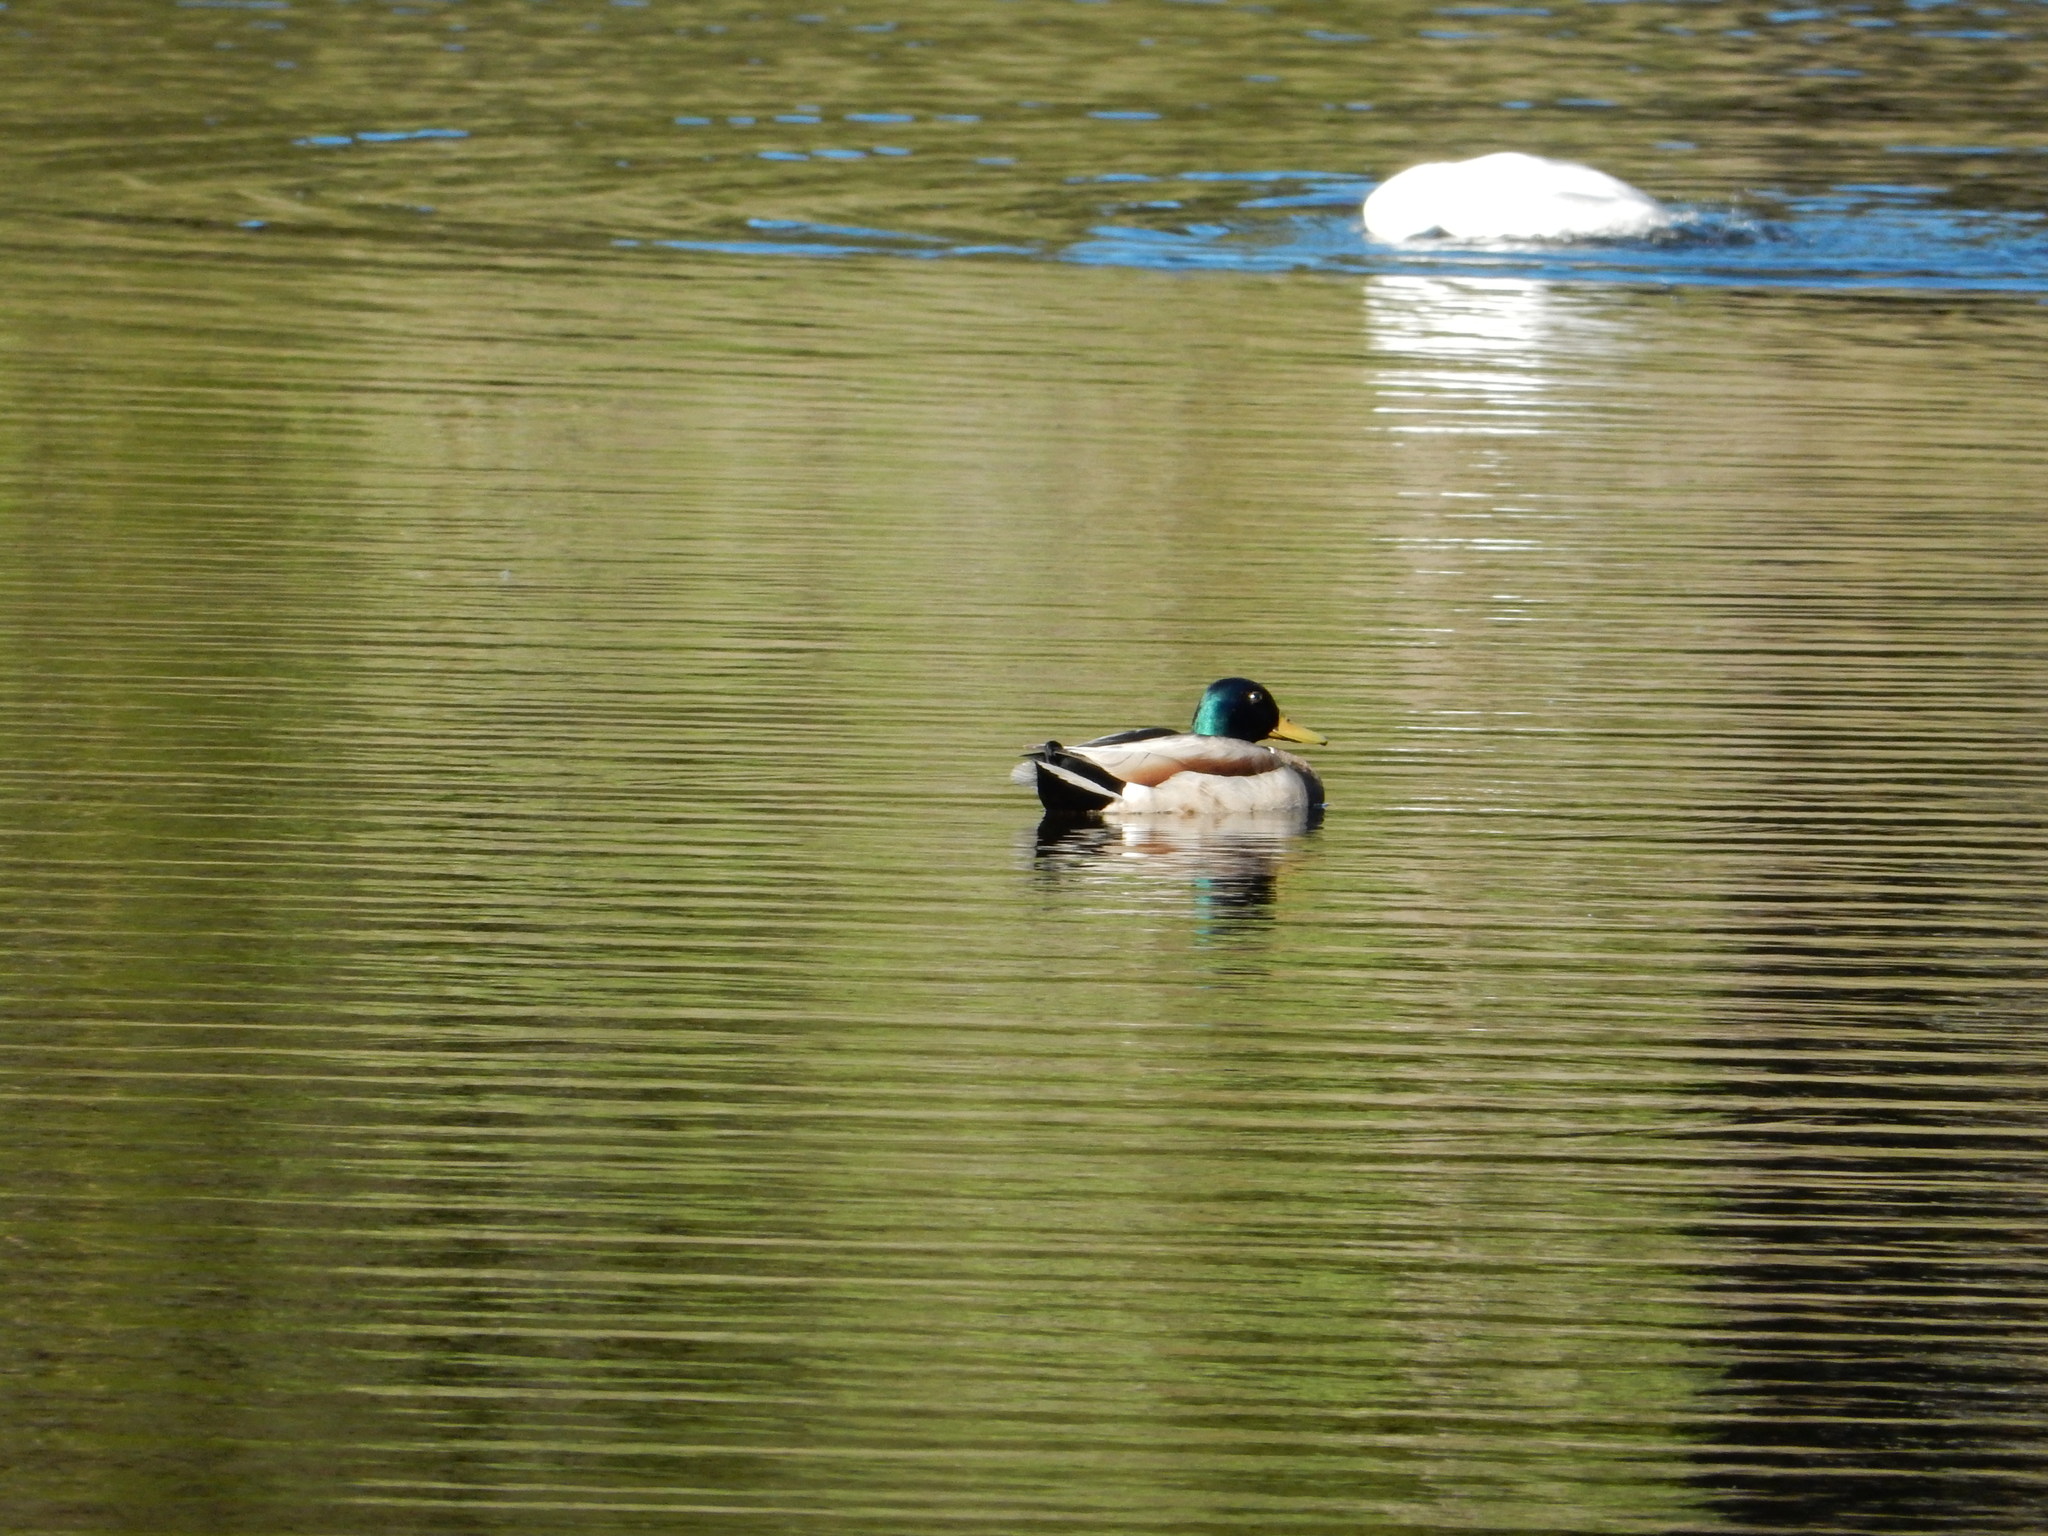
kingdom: Animalia
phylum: Chordata
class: Aves
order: Anseriformes
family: Anatidae
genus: Anas
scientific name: Anas platyrhynchos
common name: Mallard
